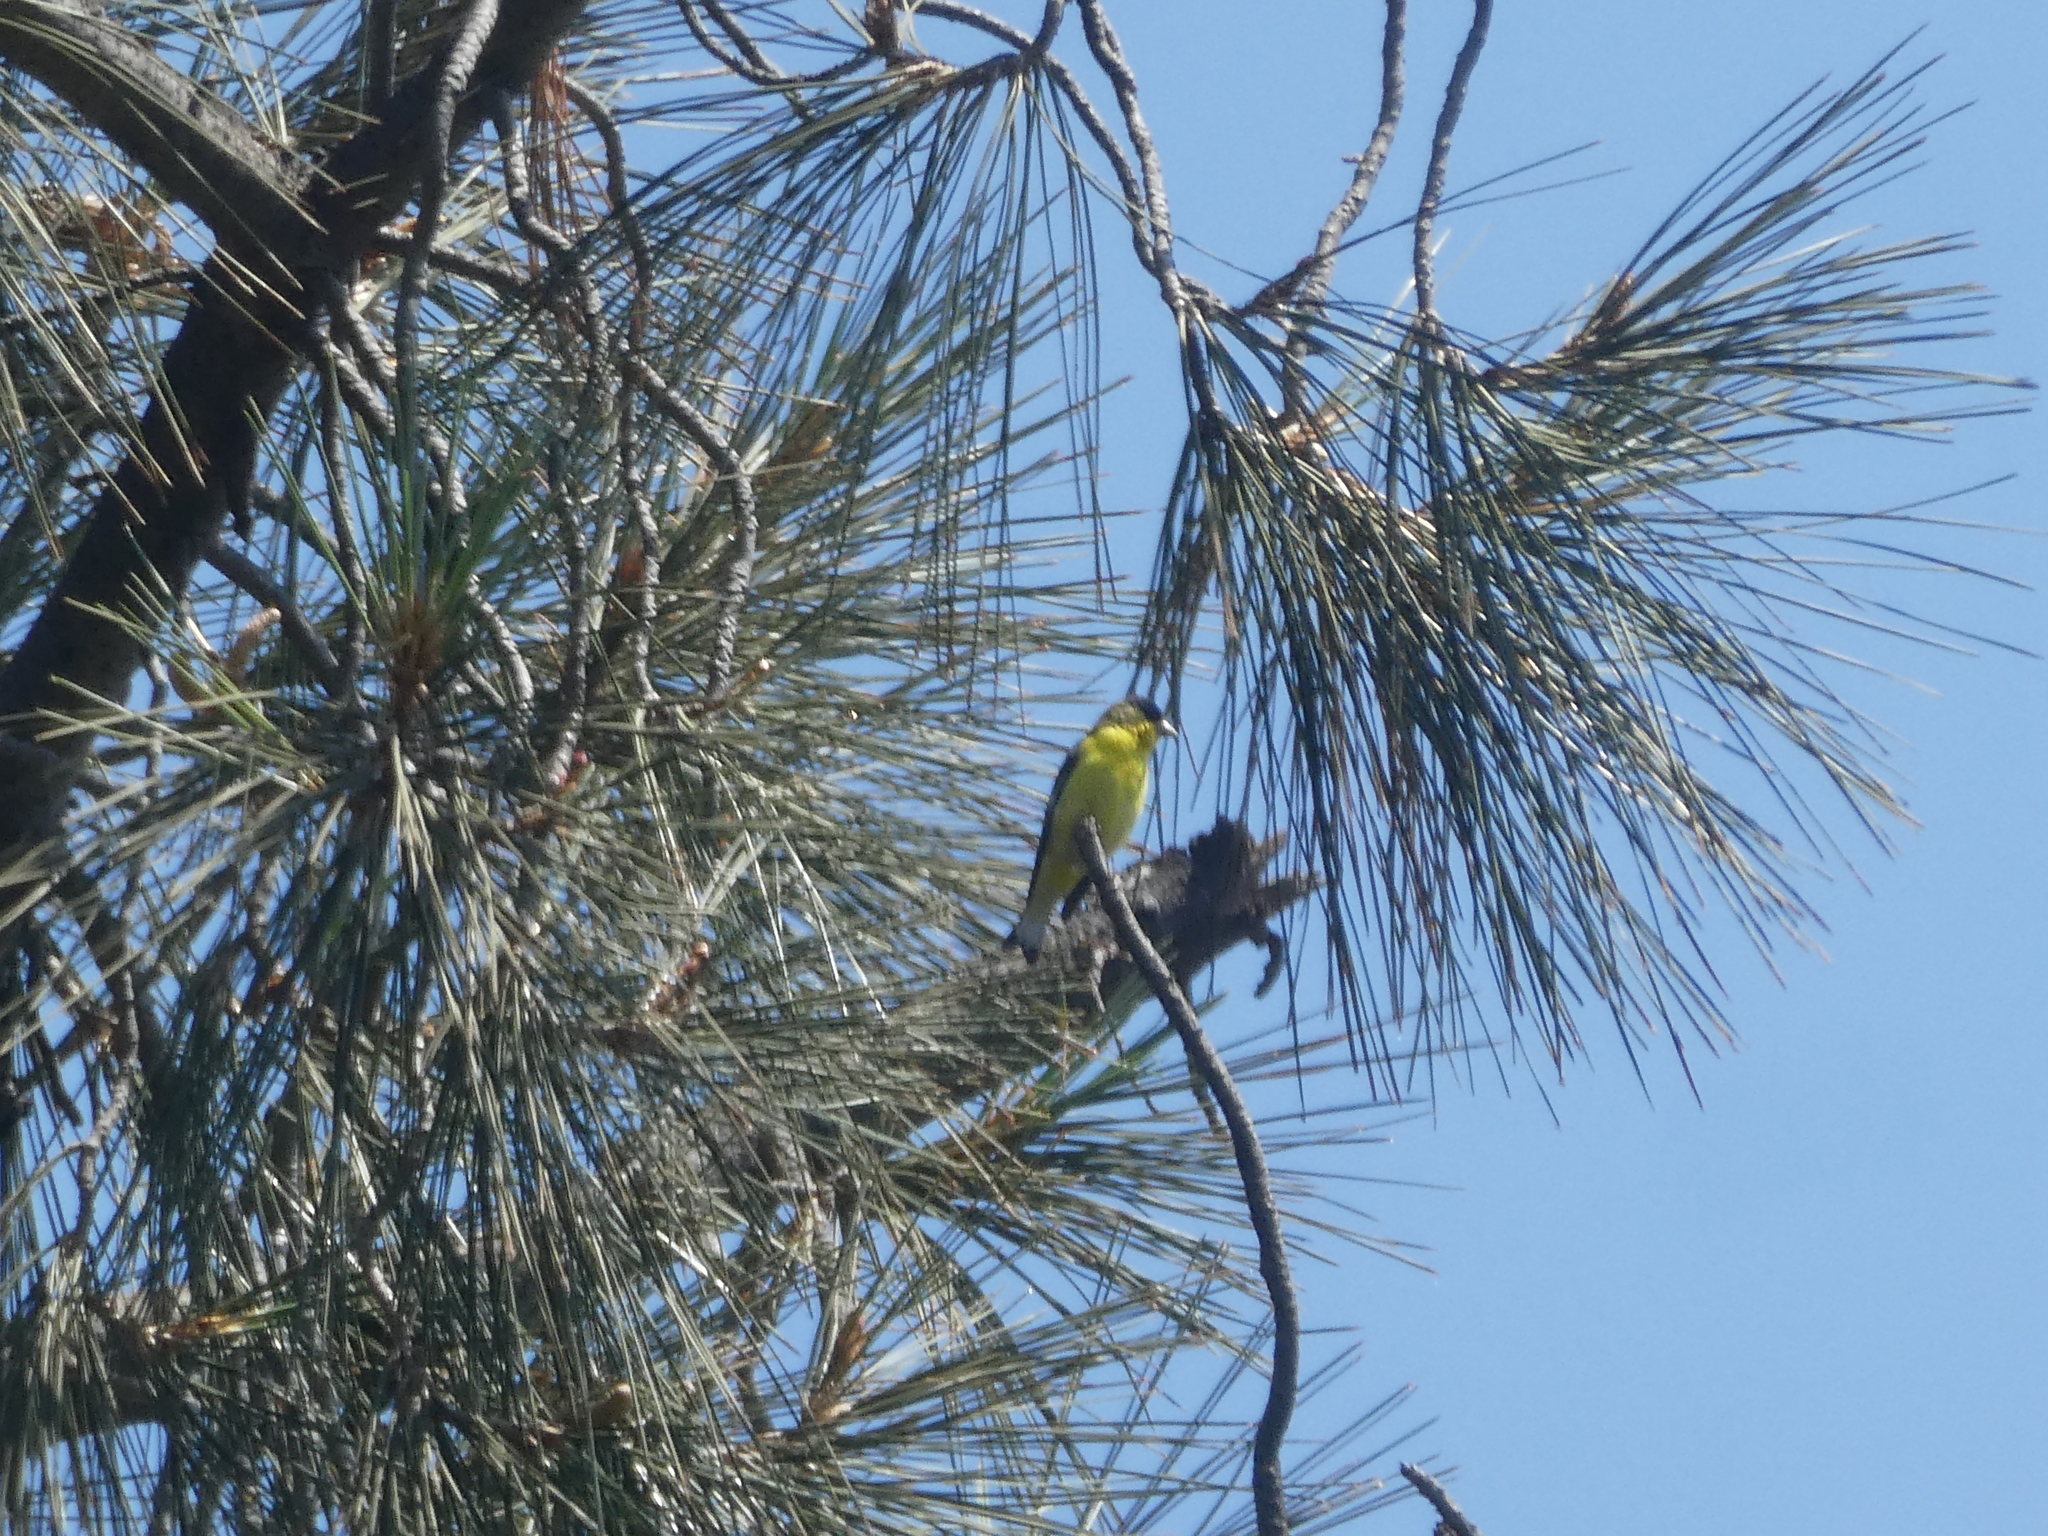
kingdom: Animalia
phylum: Chordata
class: Aves
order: Passeriformes
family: Fringillidae
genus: Spinus
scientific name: Spinus psaltria
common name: Lesser goldfinch
